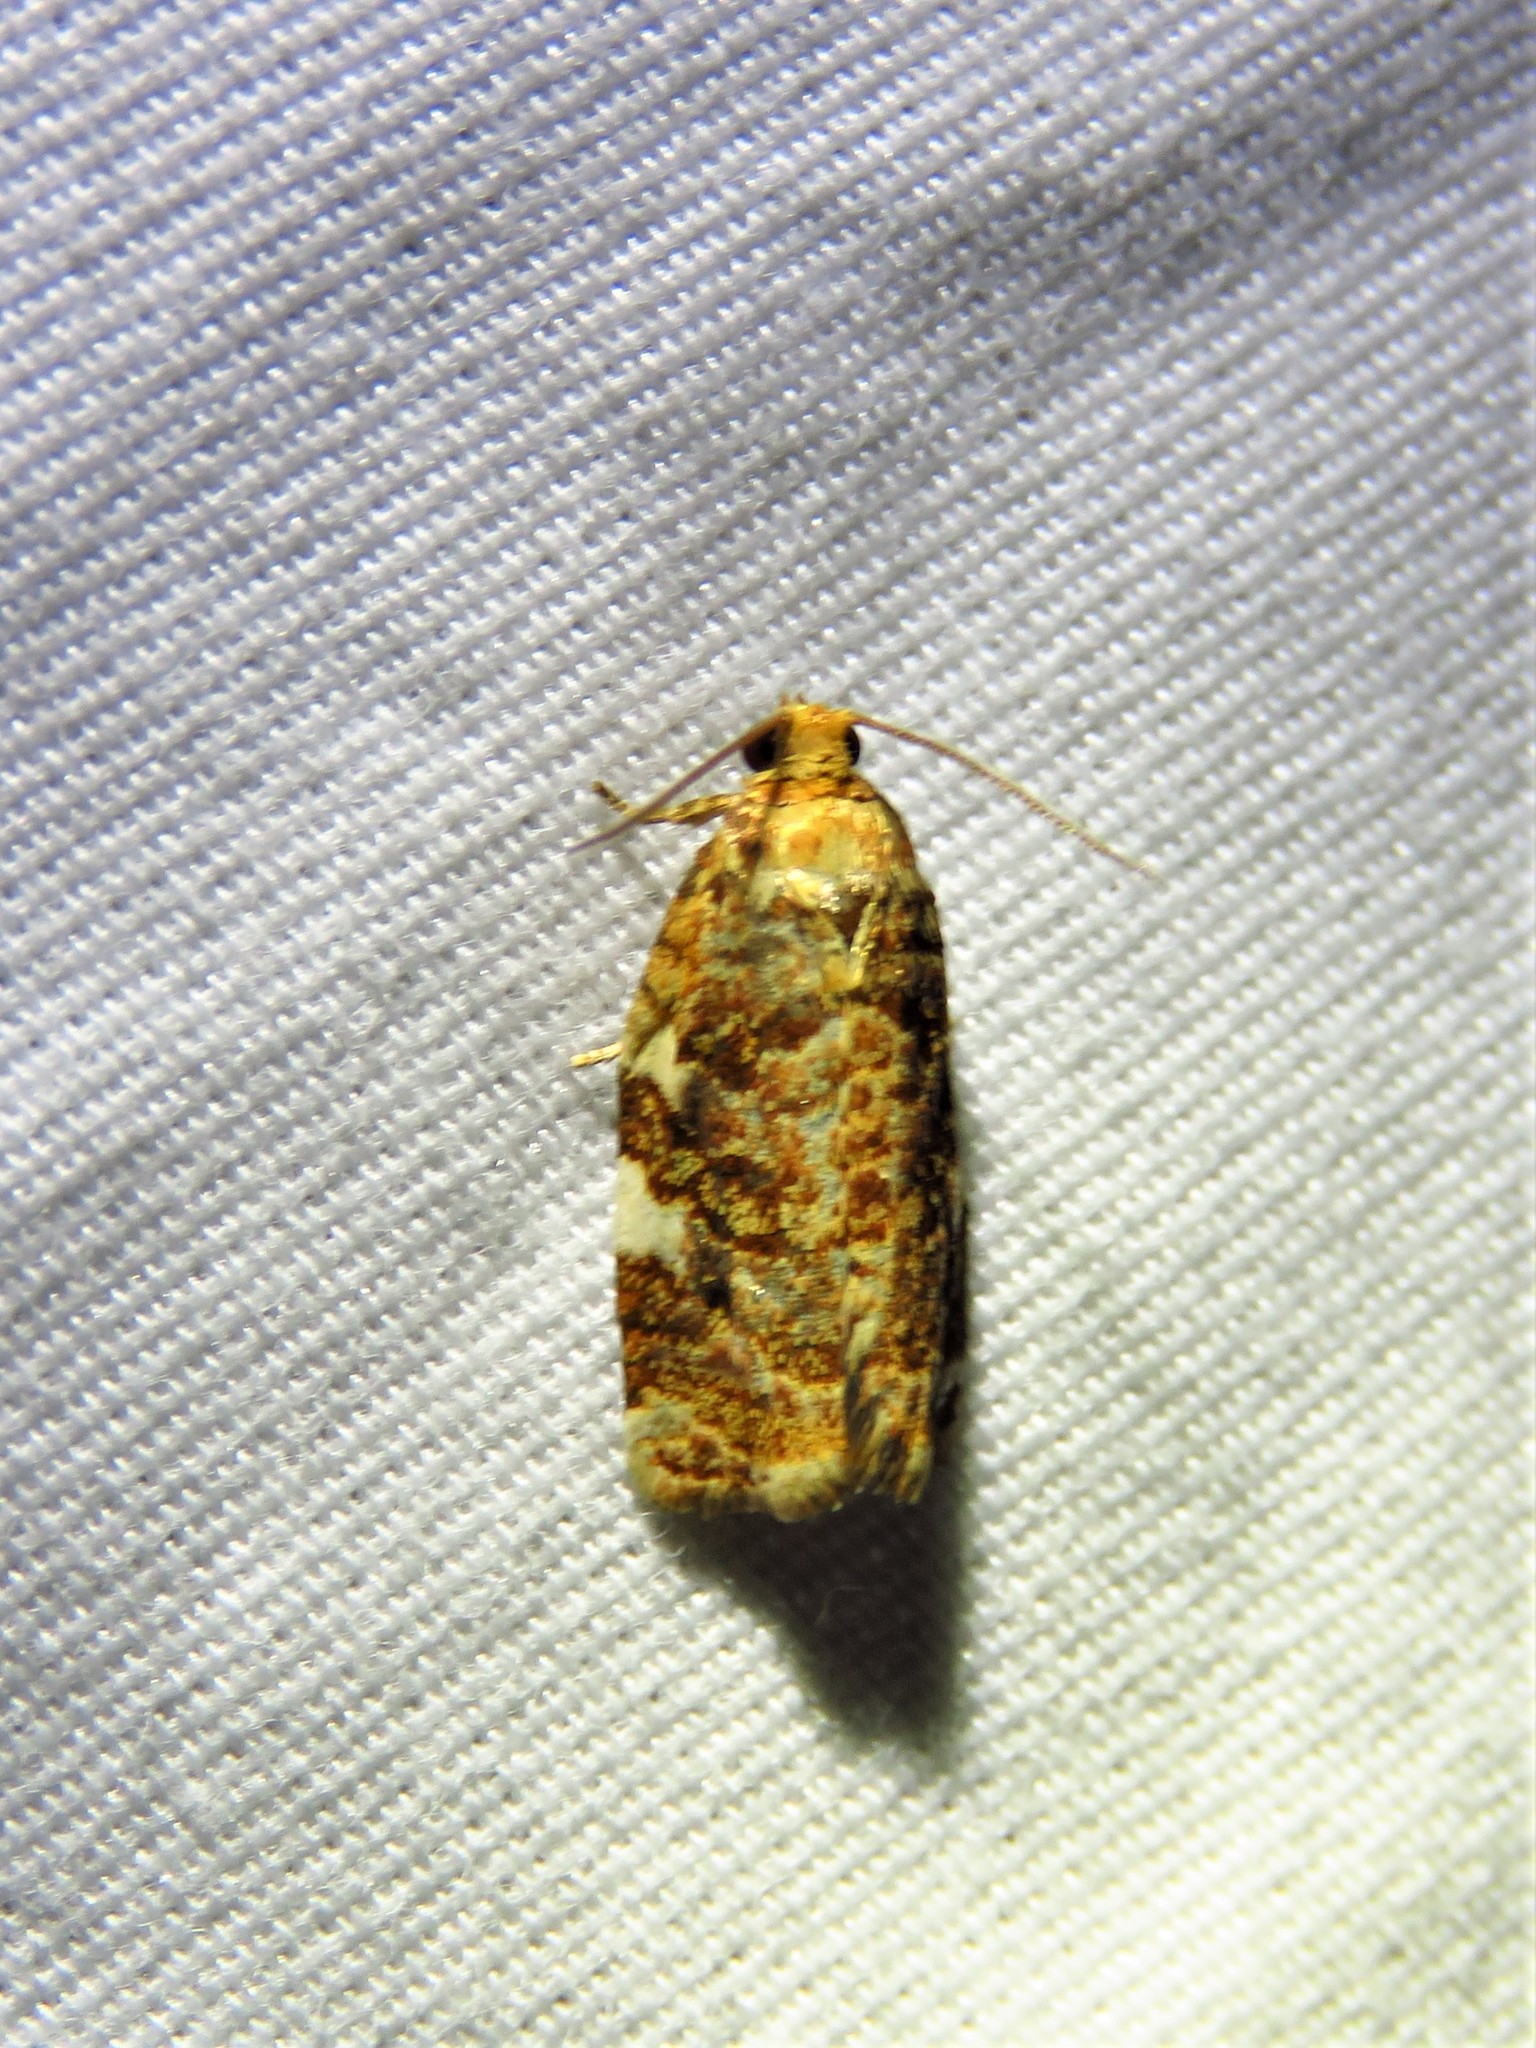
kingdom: Animalia
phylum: Arthropoda
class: Insecta
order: Lepidoptera
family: Tortricidae
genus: Archips
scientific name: Archips argyrospila
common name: Fruit-tree leafroller moth
